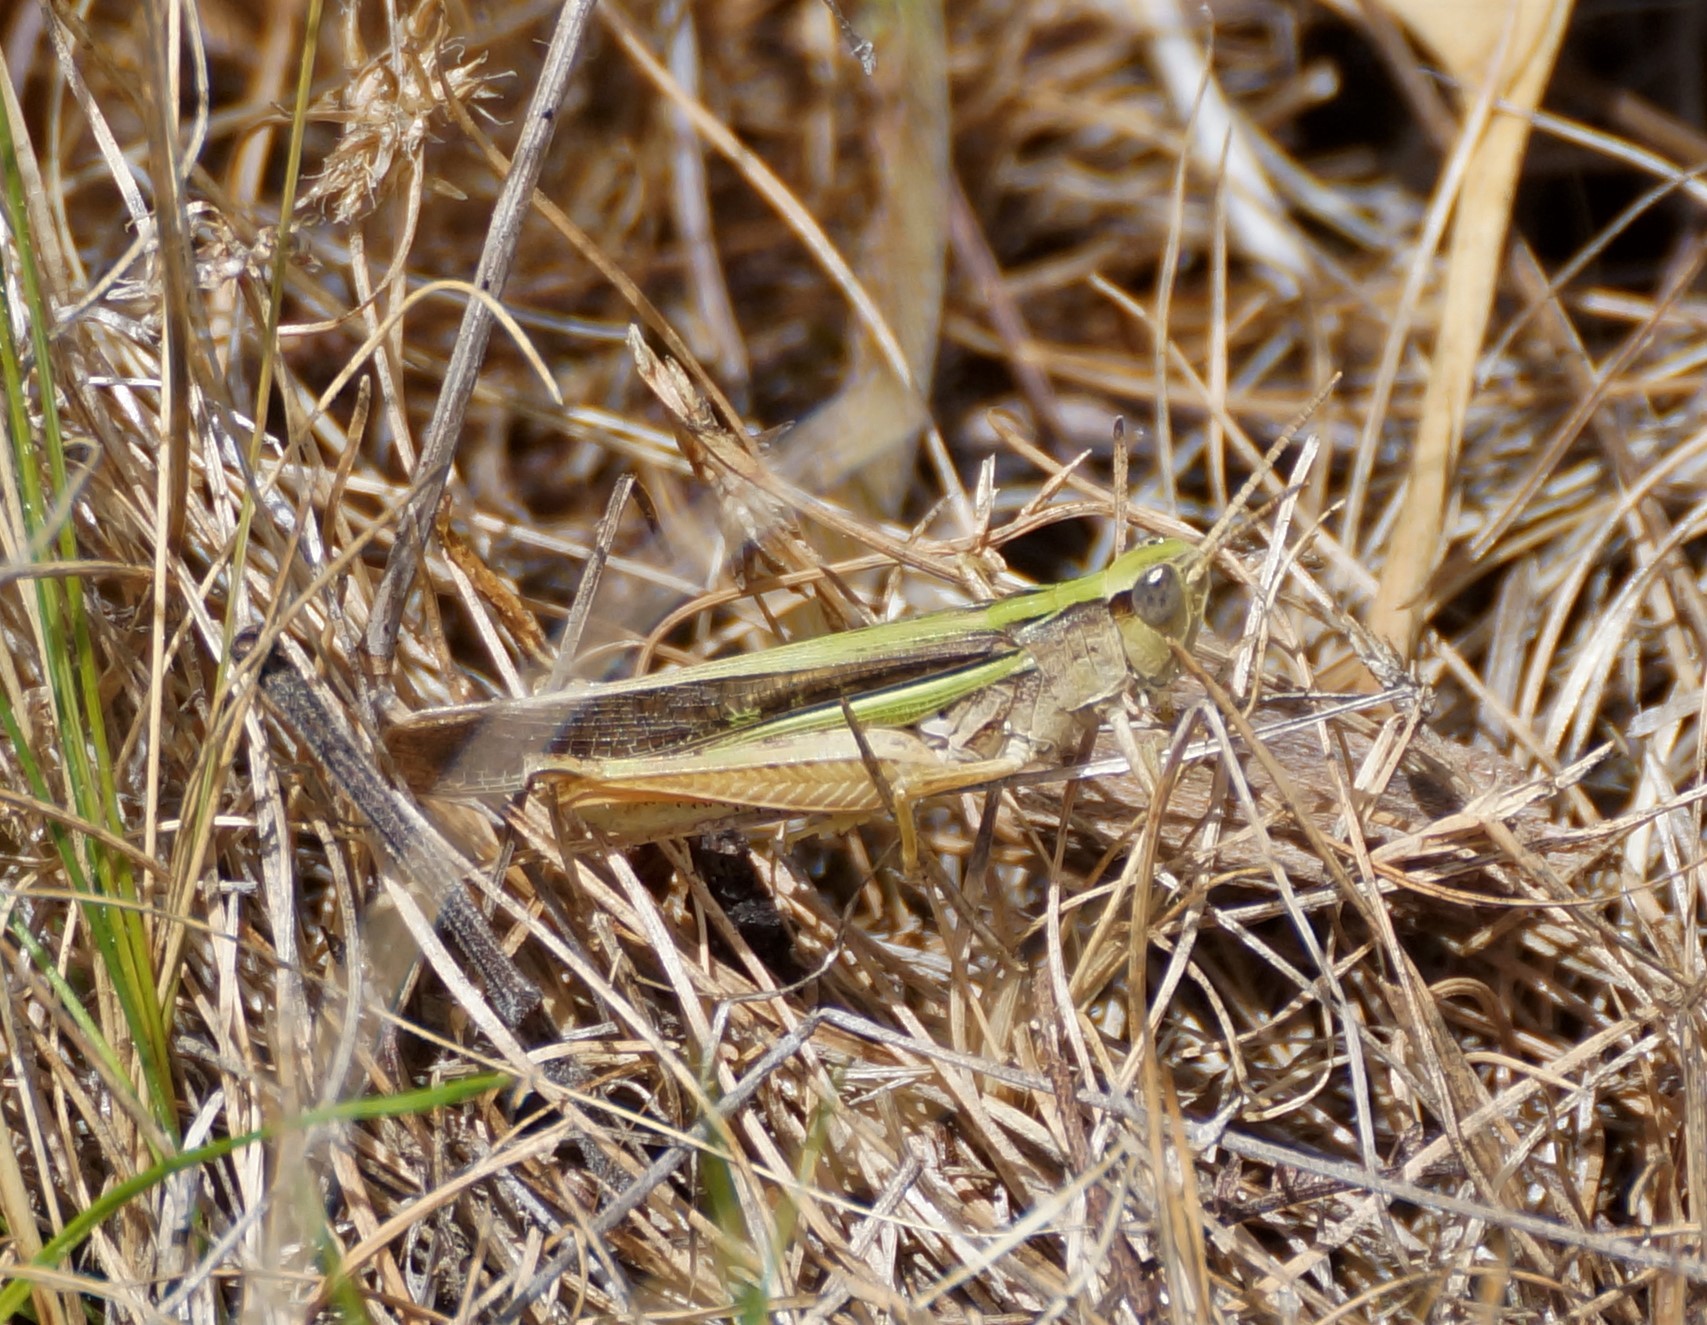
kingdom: Animalia
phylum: Arthropoda
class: Insecta
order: Orthoptera
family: Acrididae
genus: Schizobothrus
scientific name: Schizobothrus flavovittatus
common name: Disappearing grasshopper
